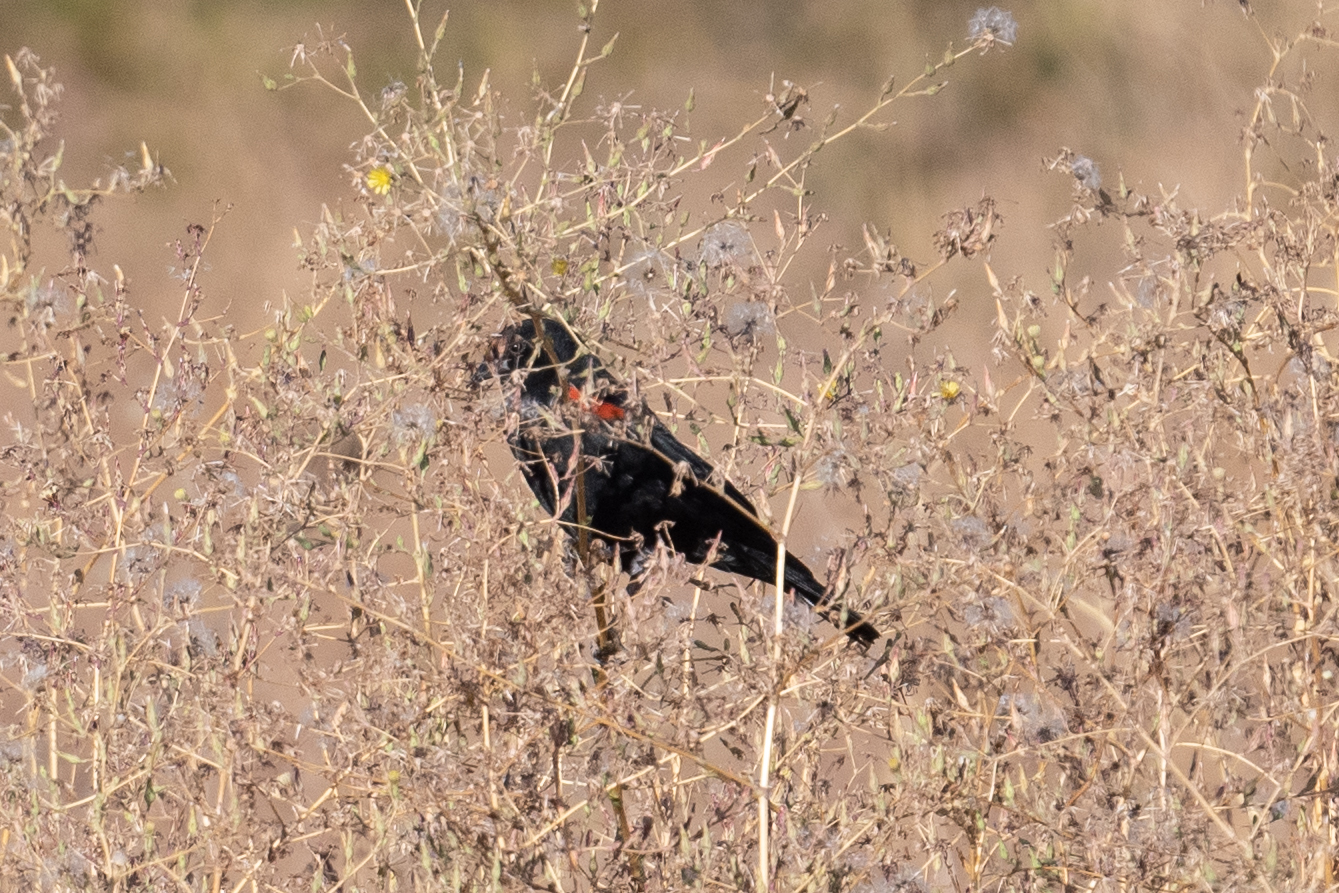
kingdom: Animalia
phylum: Chordata
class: Aves
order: Passeriformes
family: Icteridae
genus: Agelaius
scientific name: Agelaius phoeniceus
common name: Red-winged blackbird
